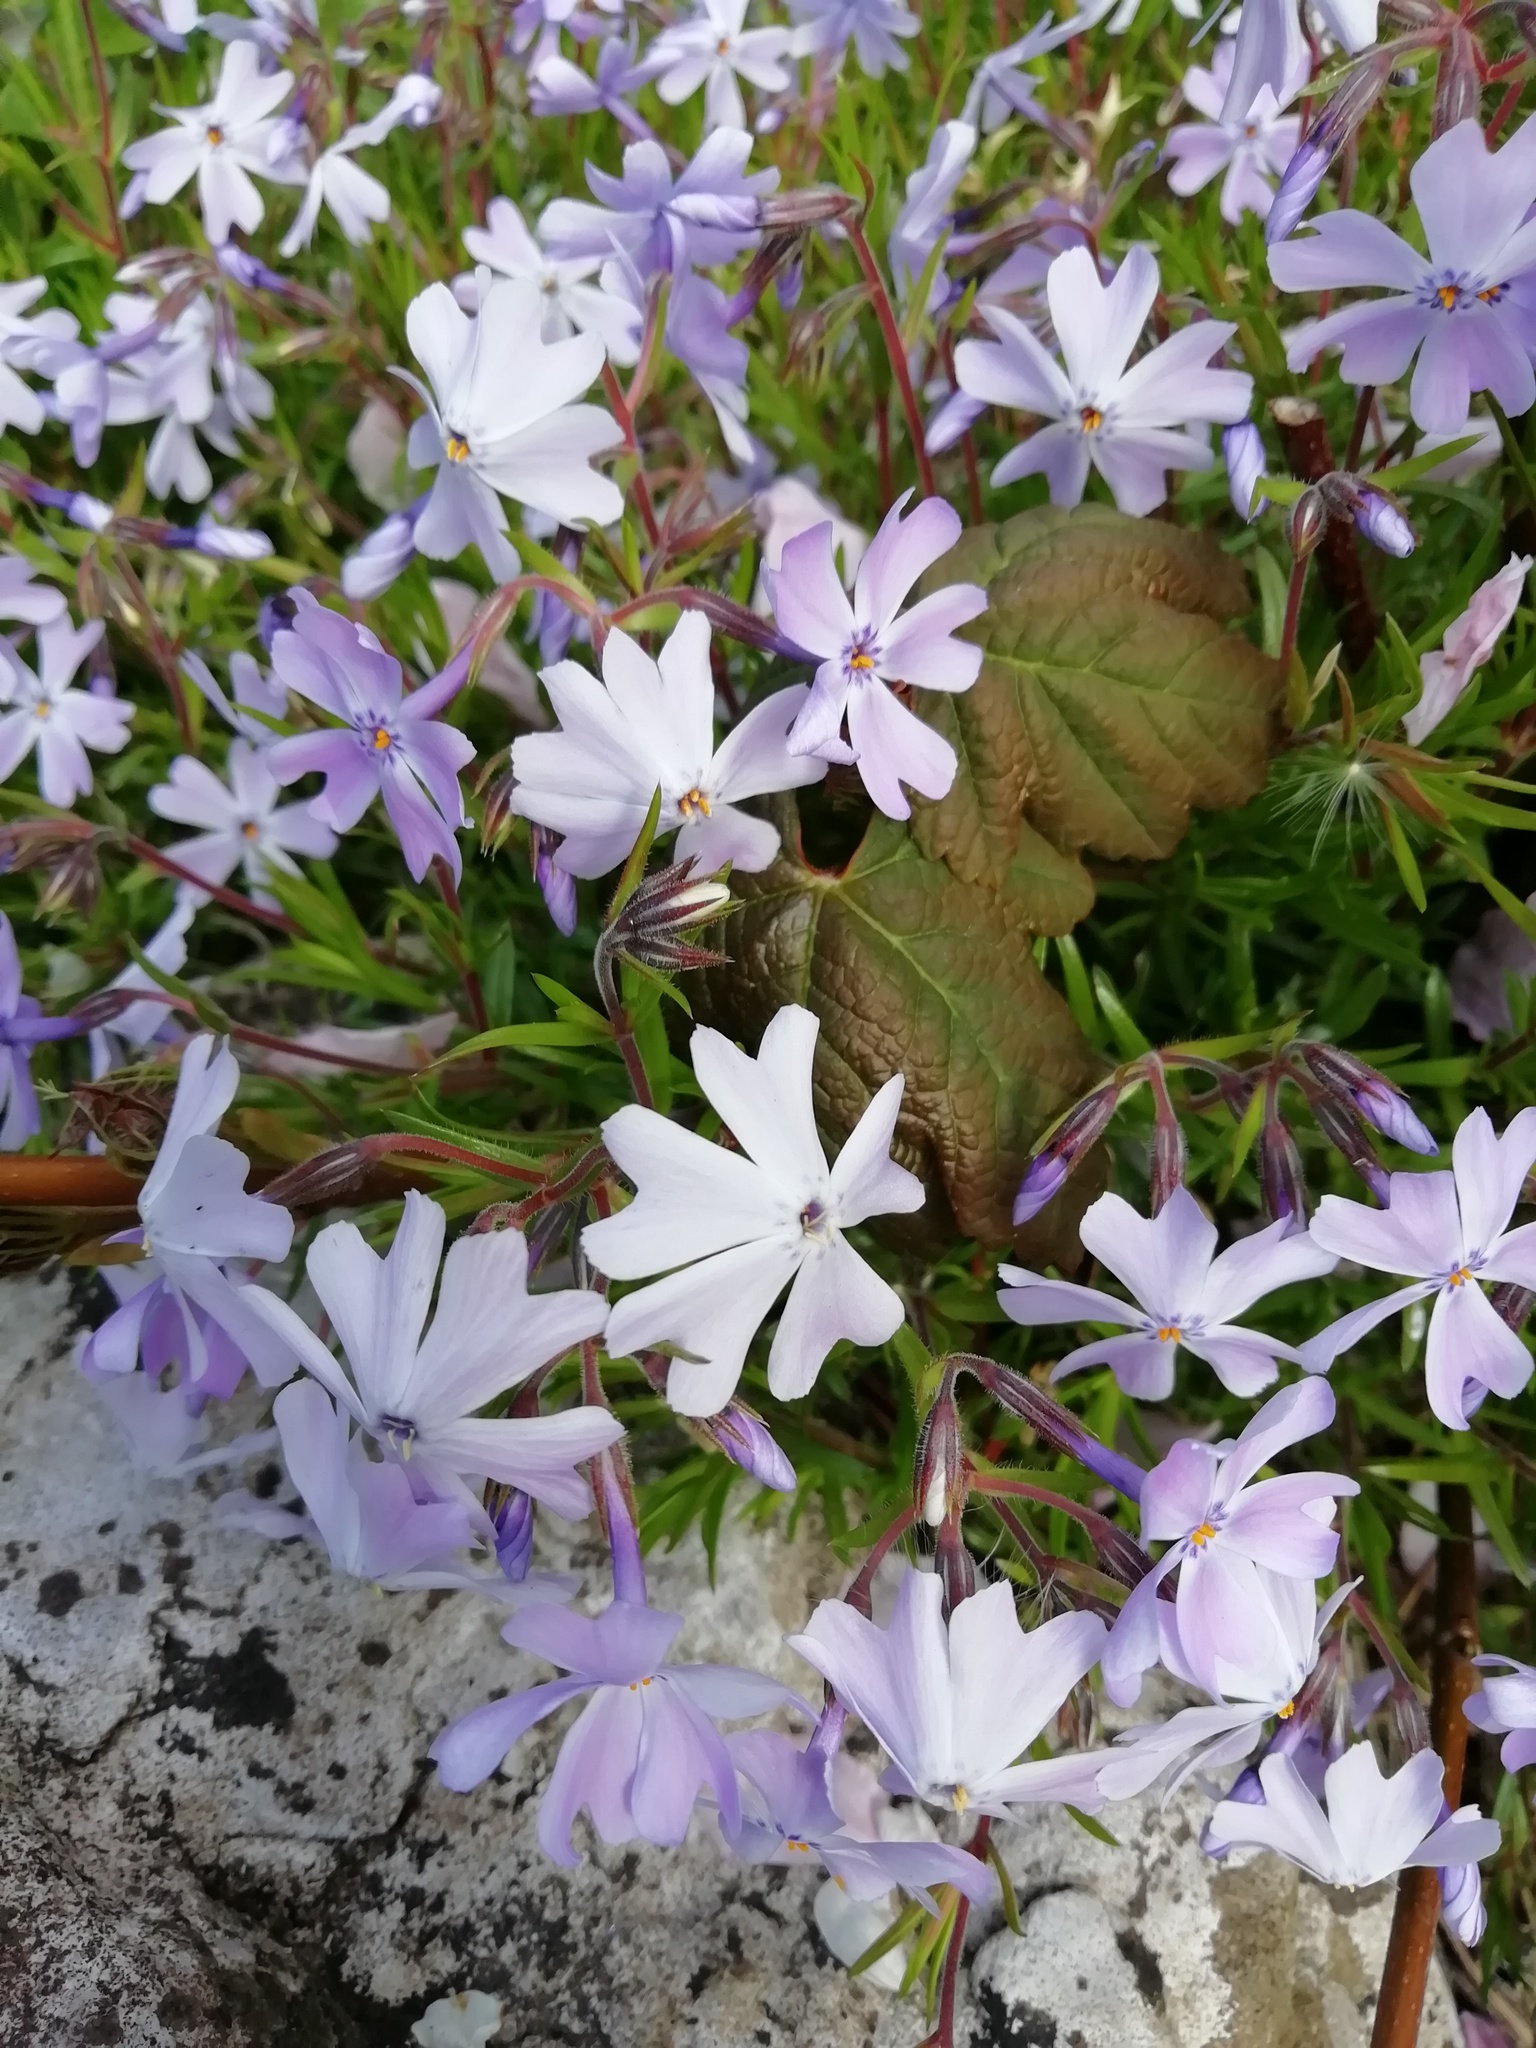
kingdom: Plantae
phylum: Tracheophyta
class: Magnoliopsida
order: Ericales
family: Polemoniaceae
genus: Phlox
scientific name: Phlox subulata
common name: Moss phlox
